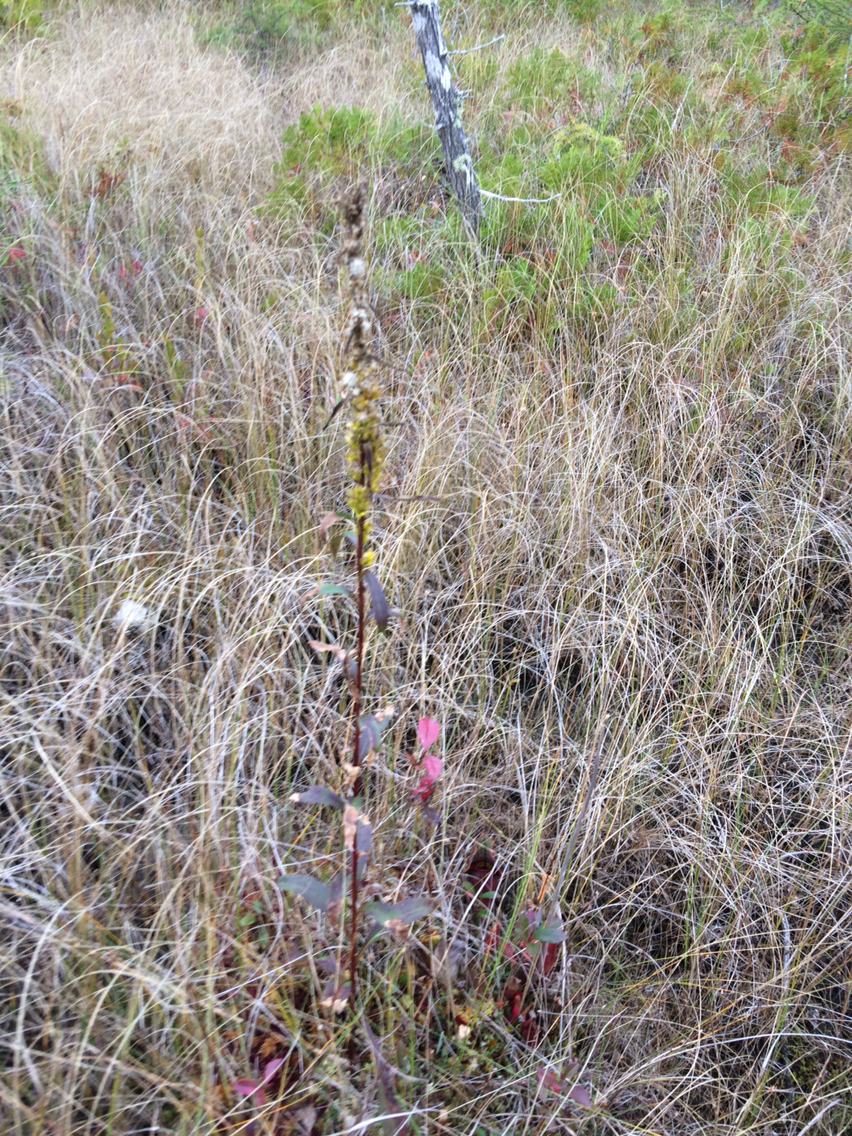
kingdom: Plantae
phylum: Tracheophyta
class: Magnoliopsida
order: Asterales
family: Asteraceae
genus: Solidago
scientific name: Solidago uliginosa
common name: Bog goldenrod
